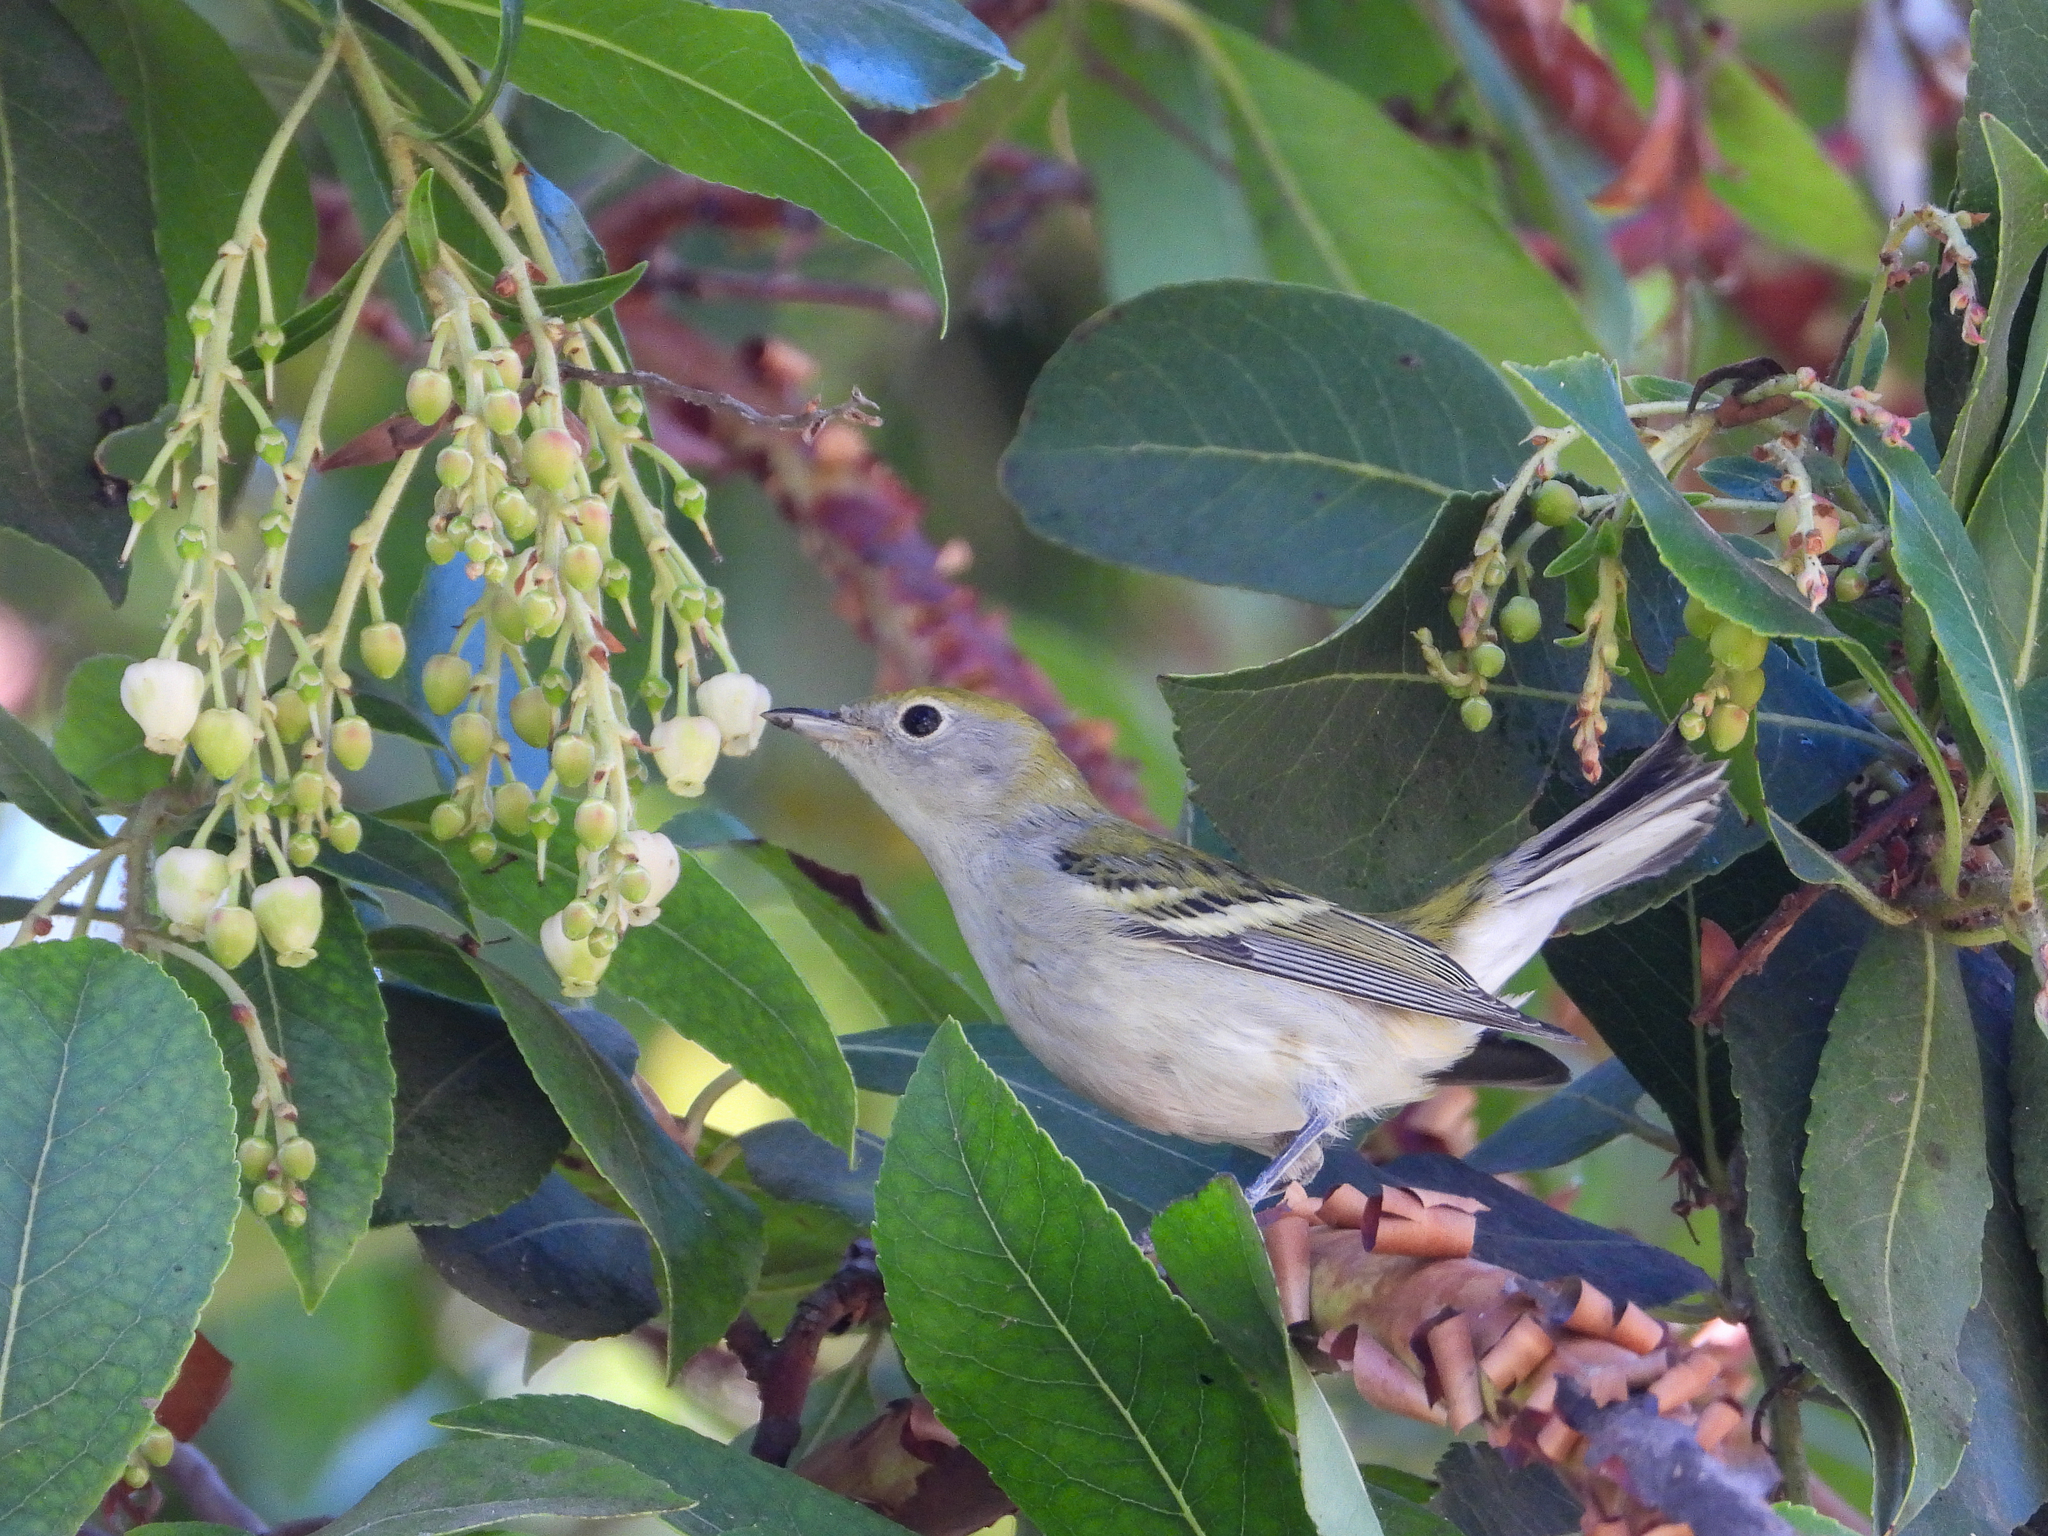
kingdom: Animalia
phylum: Chordata
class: Aves
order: Passeriformes
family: Parulidae
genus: Setophaga
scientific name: Setophaga pensylvanica
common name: Chestnut-sided warbler
